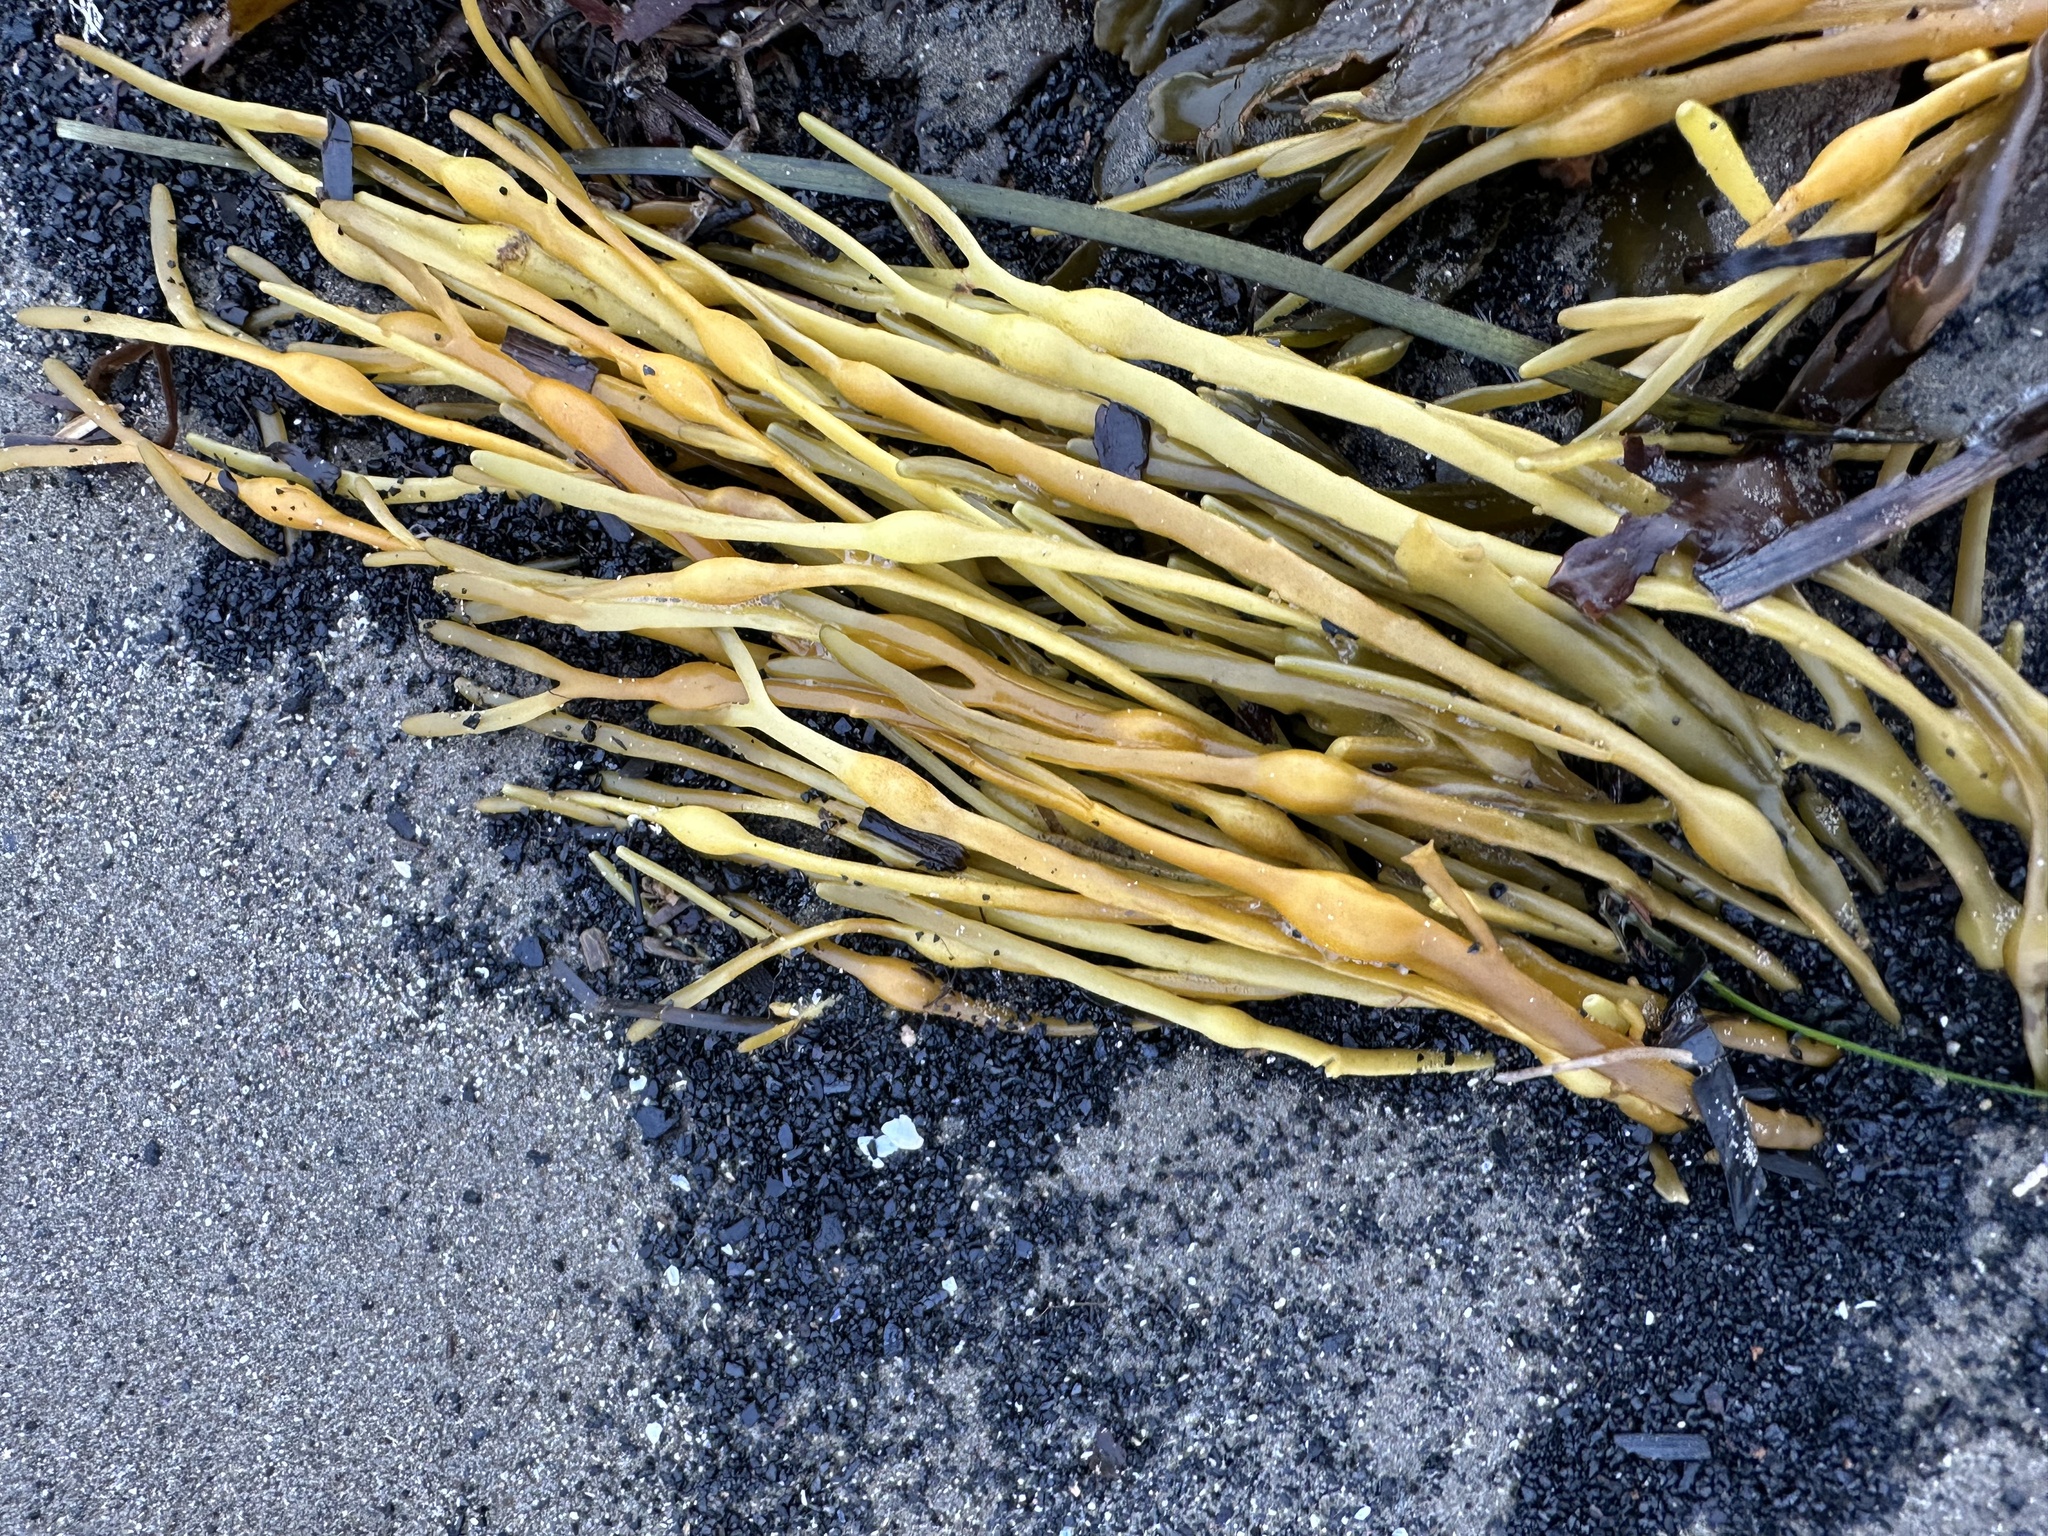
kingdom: Chromista
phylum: Ochrophyta
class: Phaeophyceae
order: Fucales
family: Fucaceae
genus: Ascophyllum
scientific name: Ascophyllum nodosum
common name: Knotted wrack
